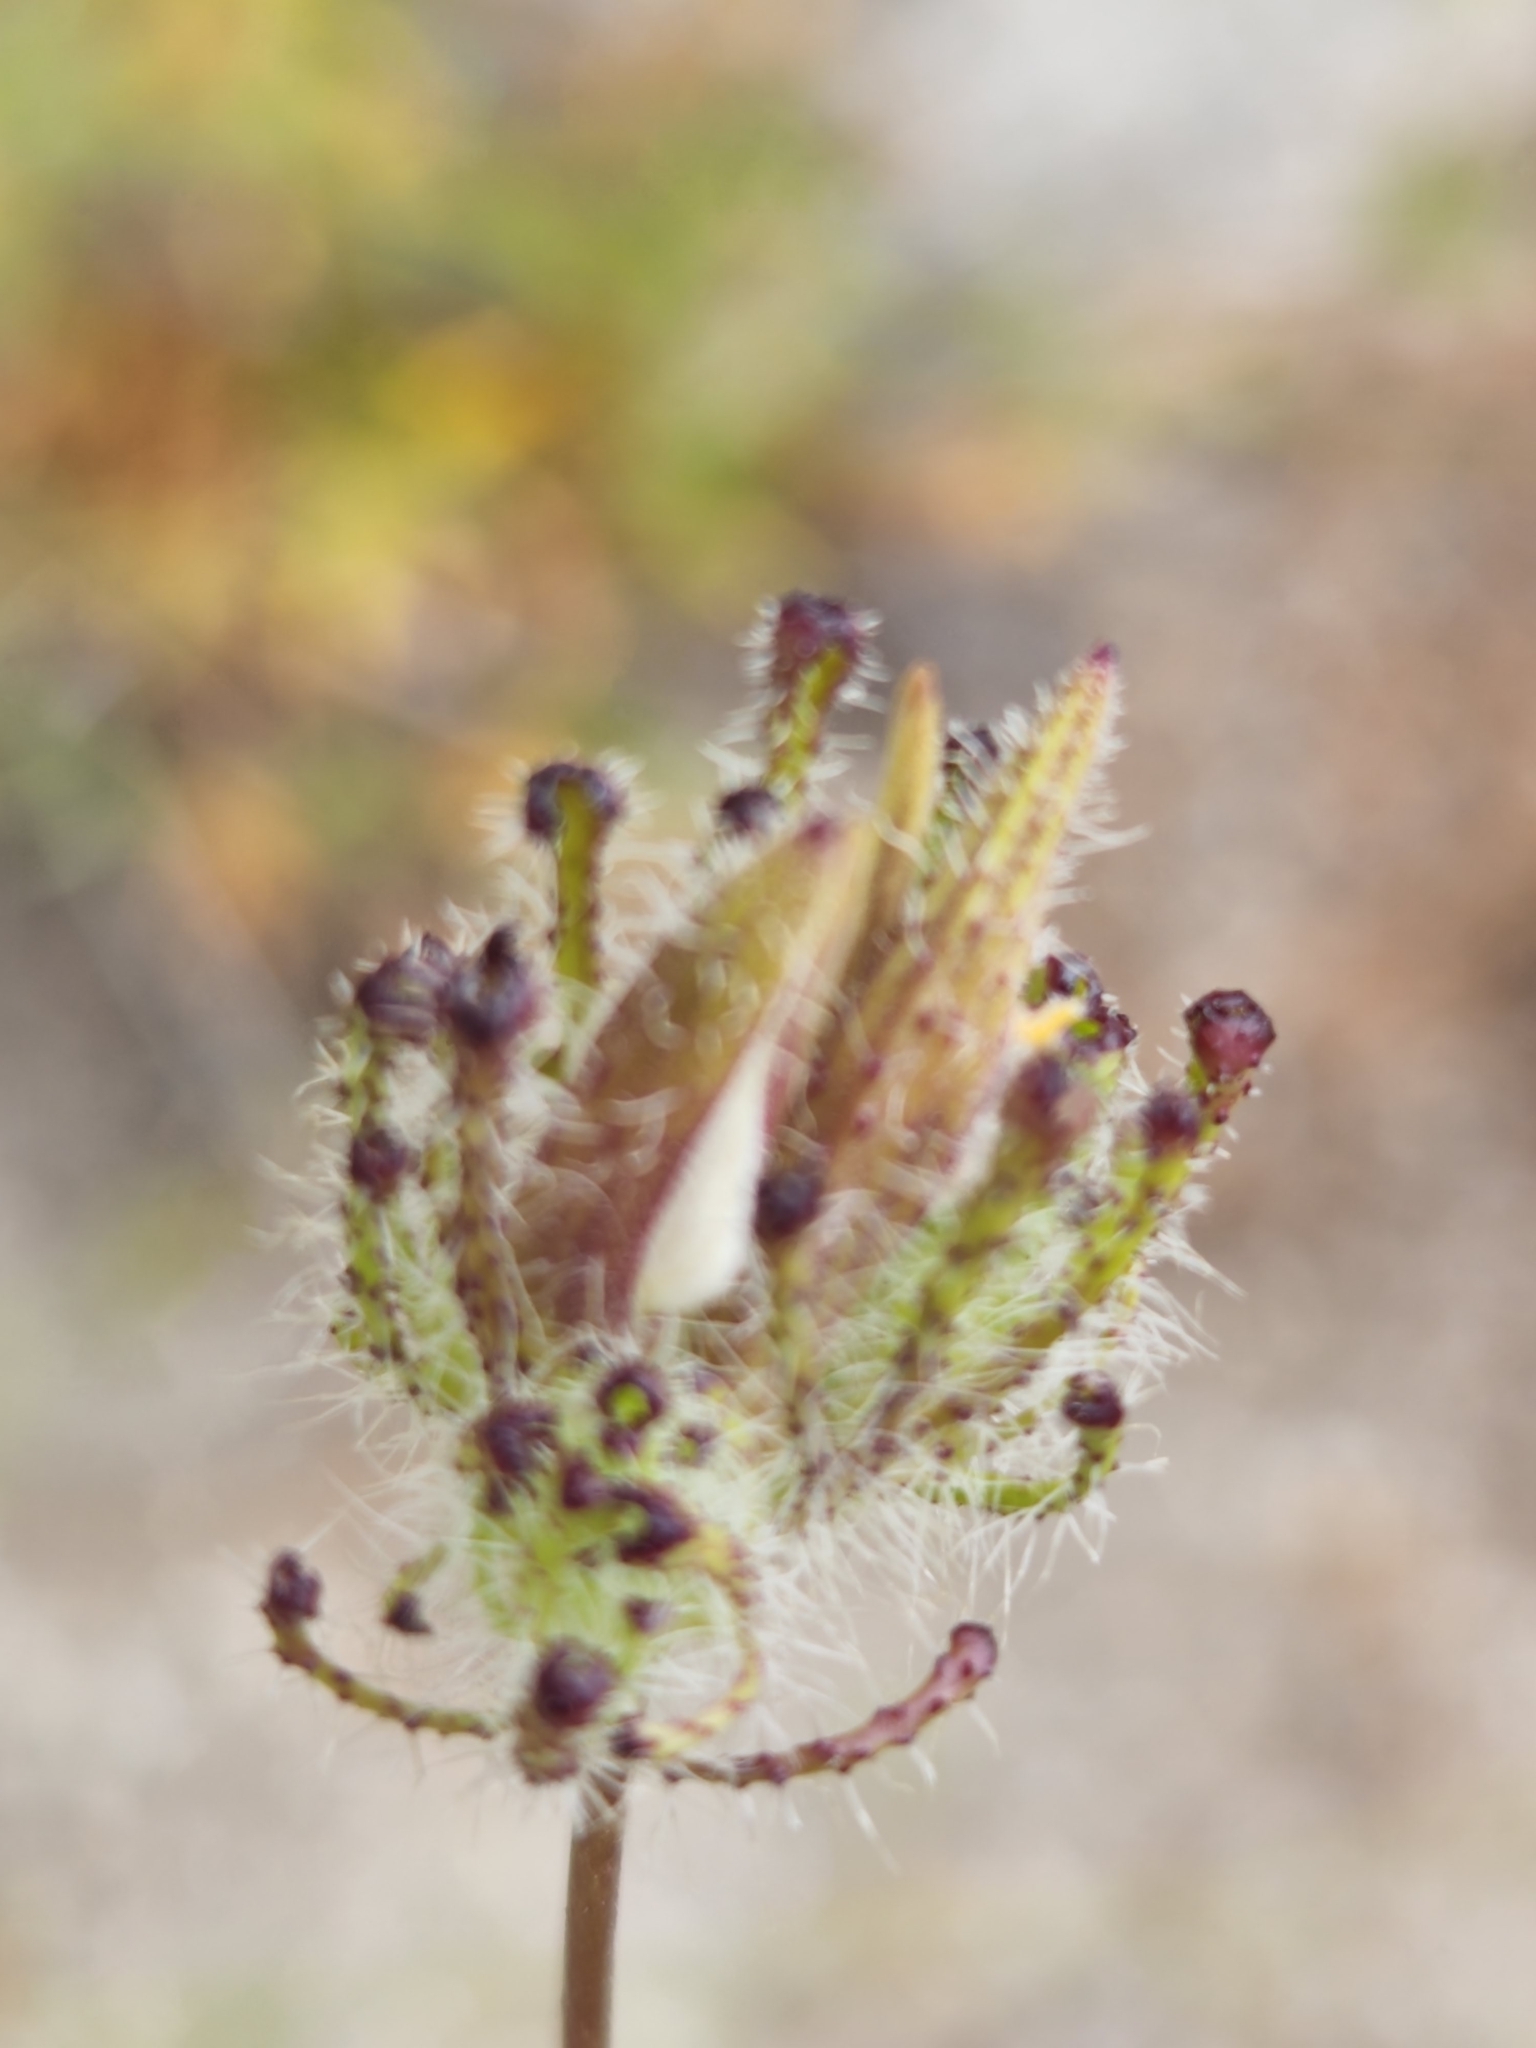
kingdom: Plantae
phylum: Tracheophyta
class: Magnoliopsida
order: Lamiales
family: Orobanchaceae
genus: Cordylanthus
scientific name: Cordylanthus rigidus
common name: Stiff-branch bird's-beak
